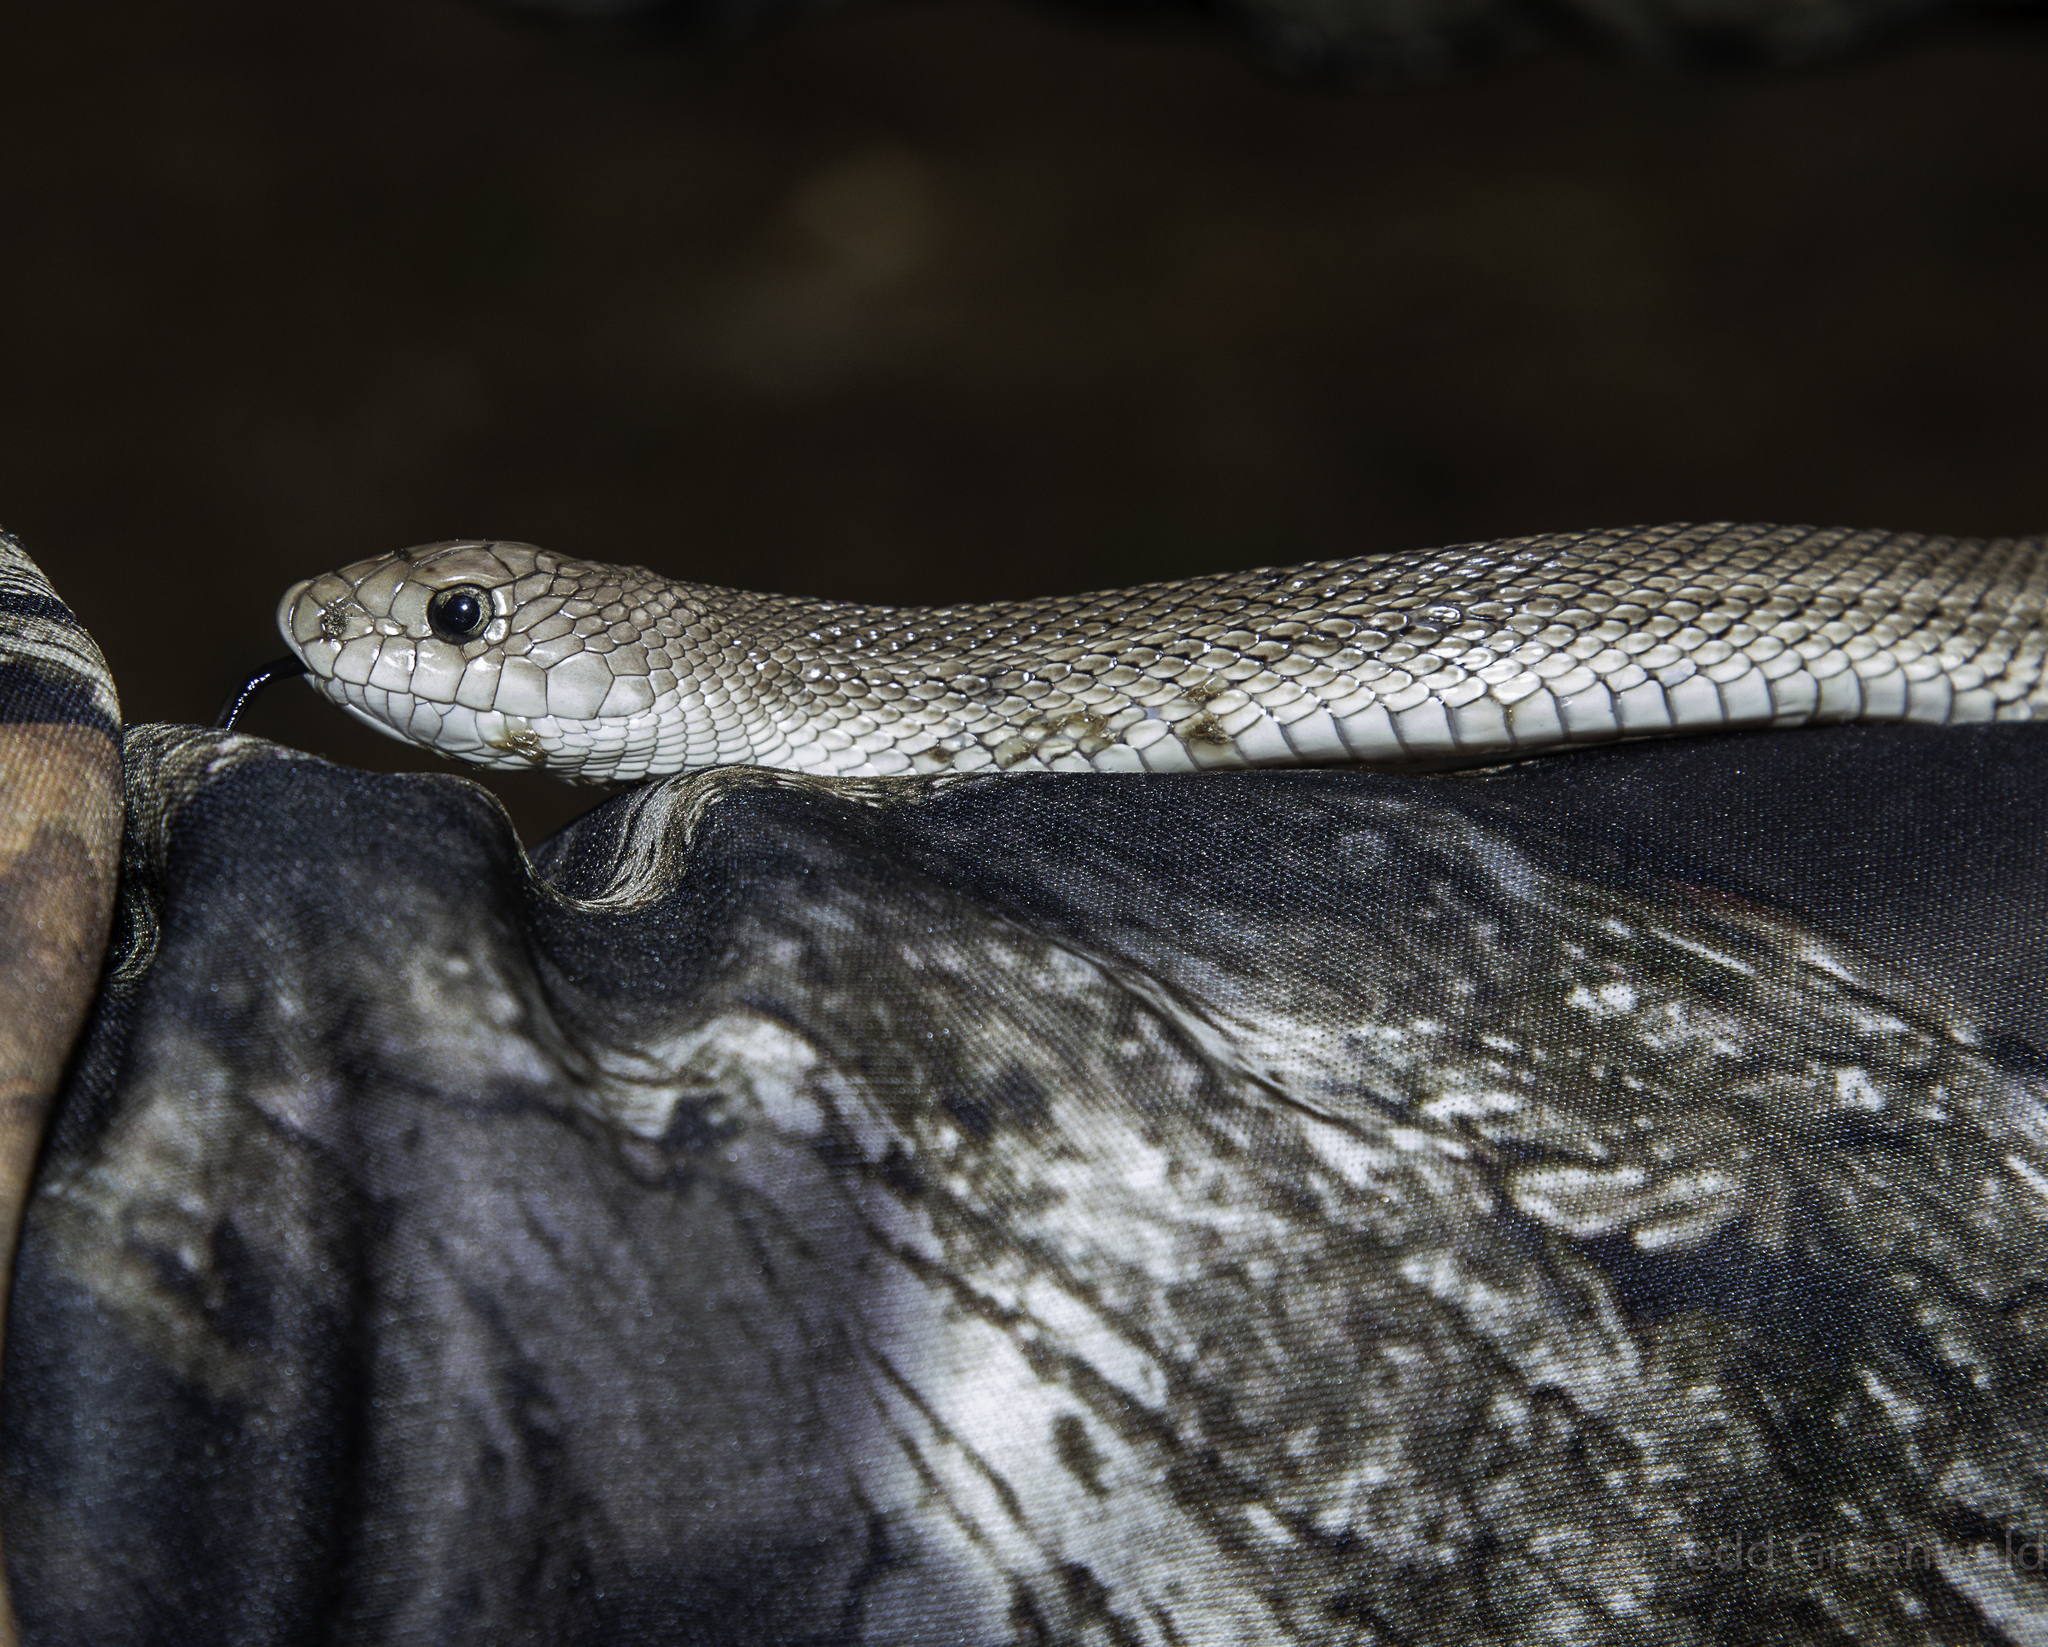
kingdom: Animalia
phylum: Chordata
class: Squamata
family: Colubridae
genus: Pituophis
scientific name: Pituophis melanoleucus
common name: Pine snake
